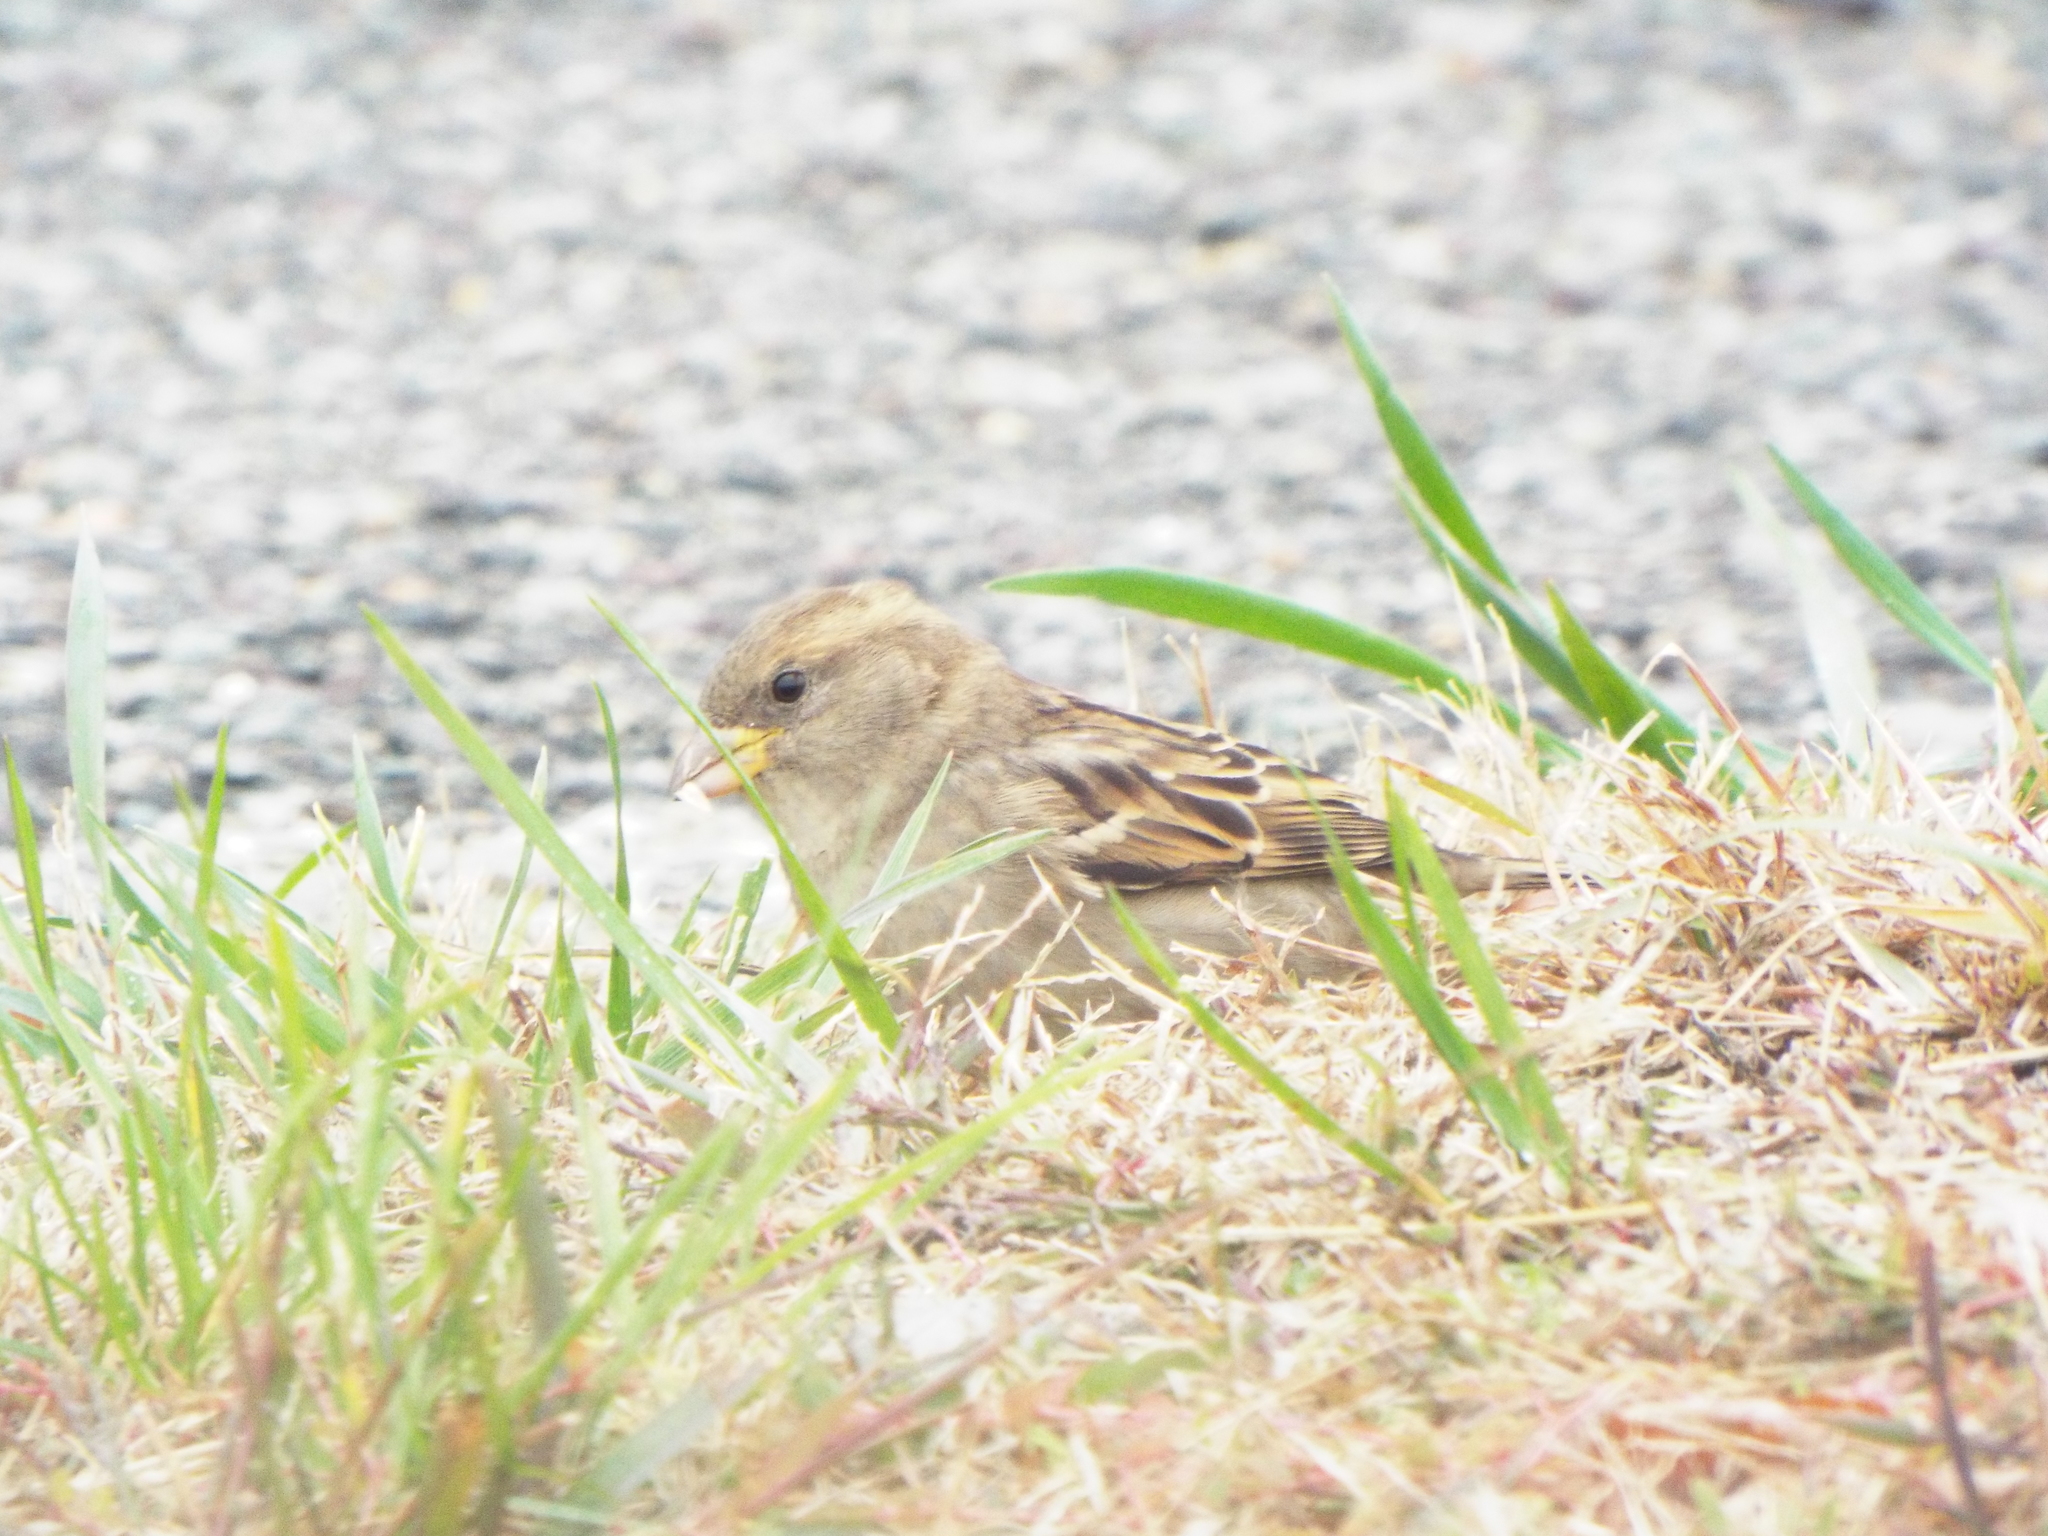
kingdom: Animalia
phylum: Chordata
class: Aves
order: Passeriformes
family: Passeridae
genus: Passer
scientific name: Passer domesticus
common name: House sparrow
